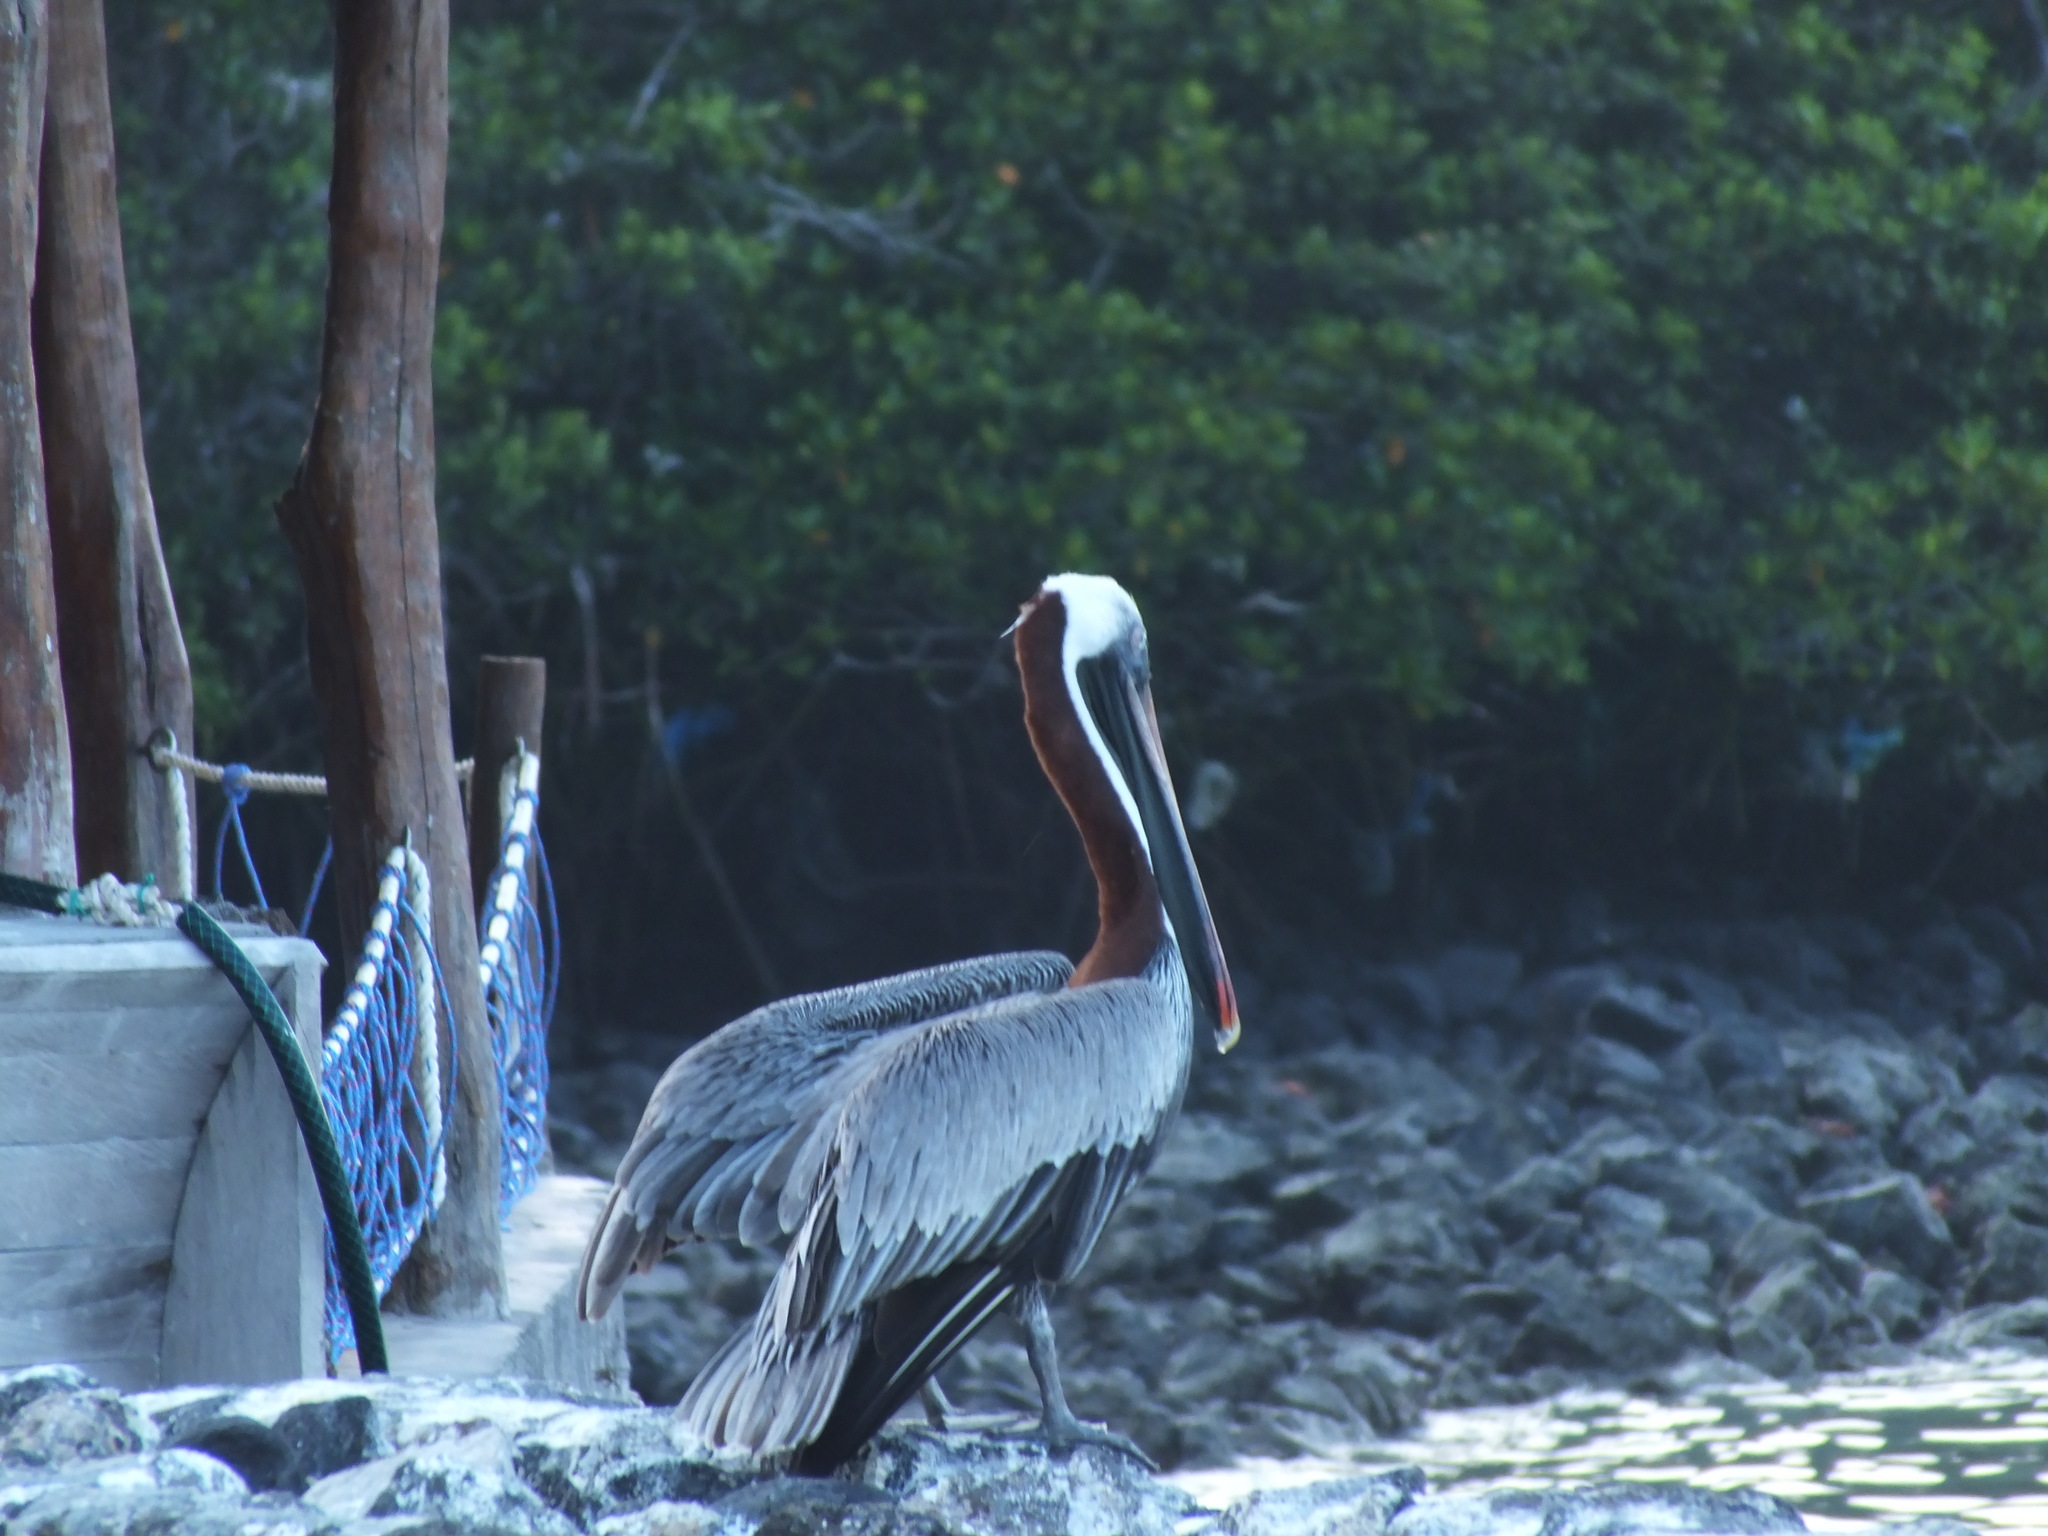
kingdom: Animalia
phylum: Chordata
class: Aves
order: Pelecaniformes
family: Pelecanidae
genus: Pelecanus
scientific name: Pelecanus occidentalis
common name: Brown pelican
